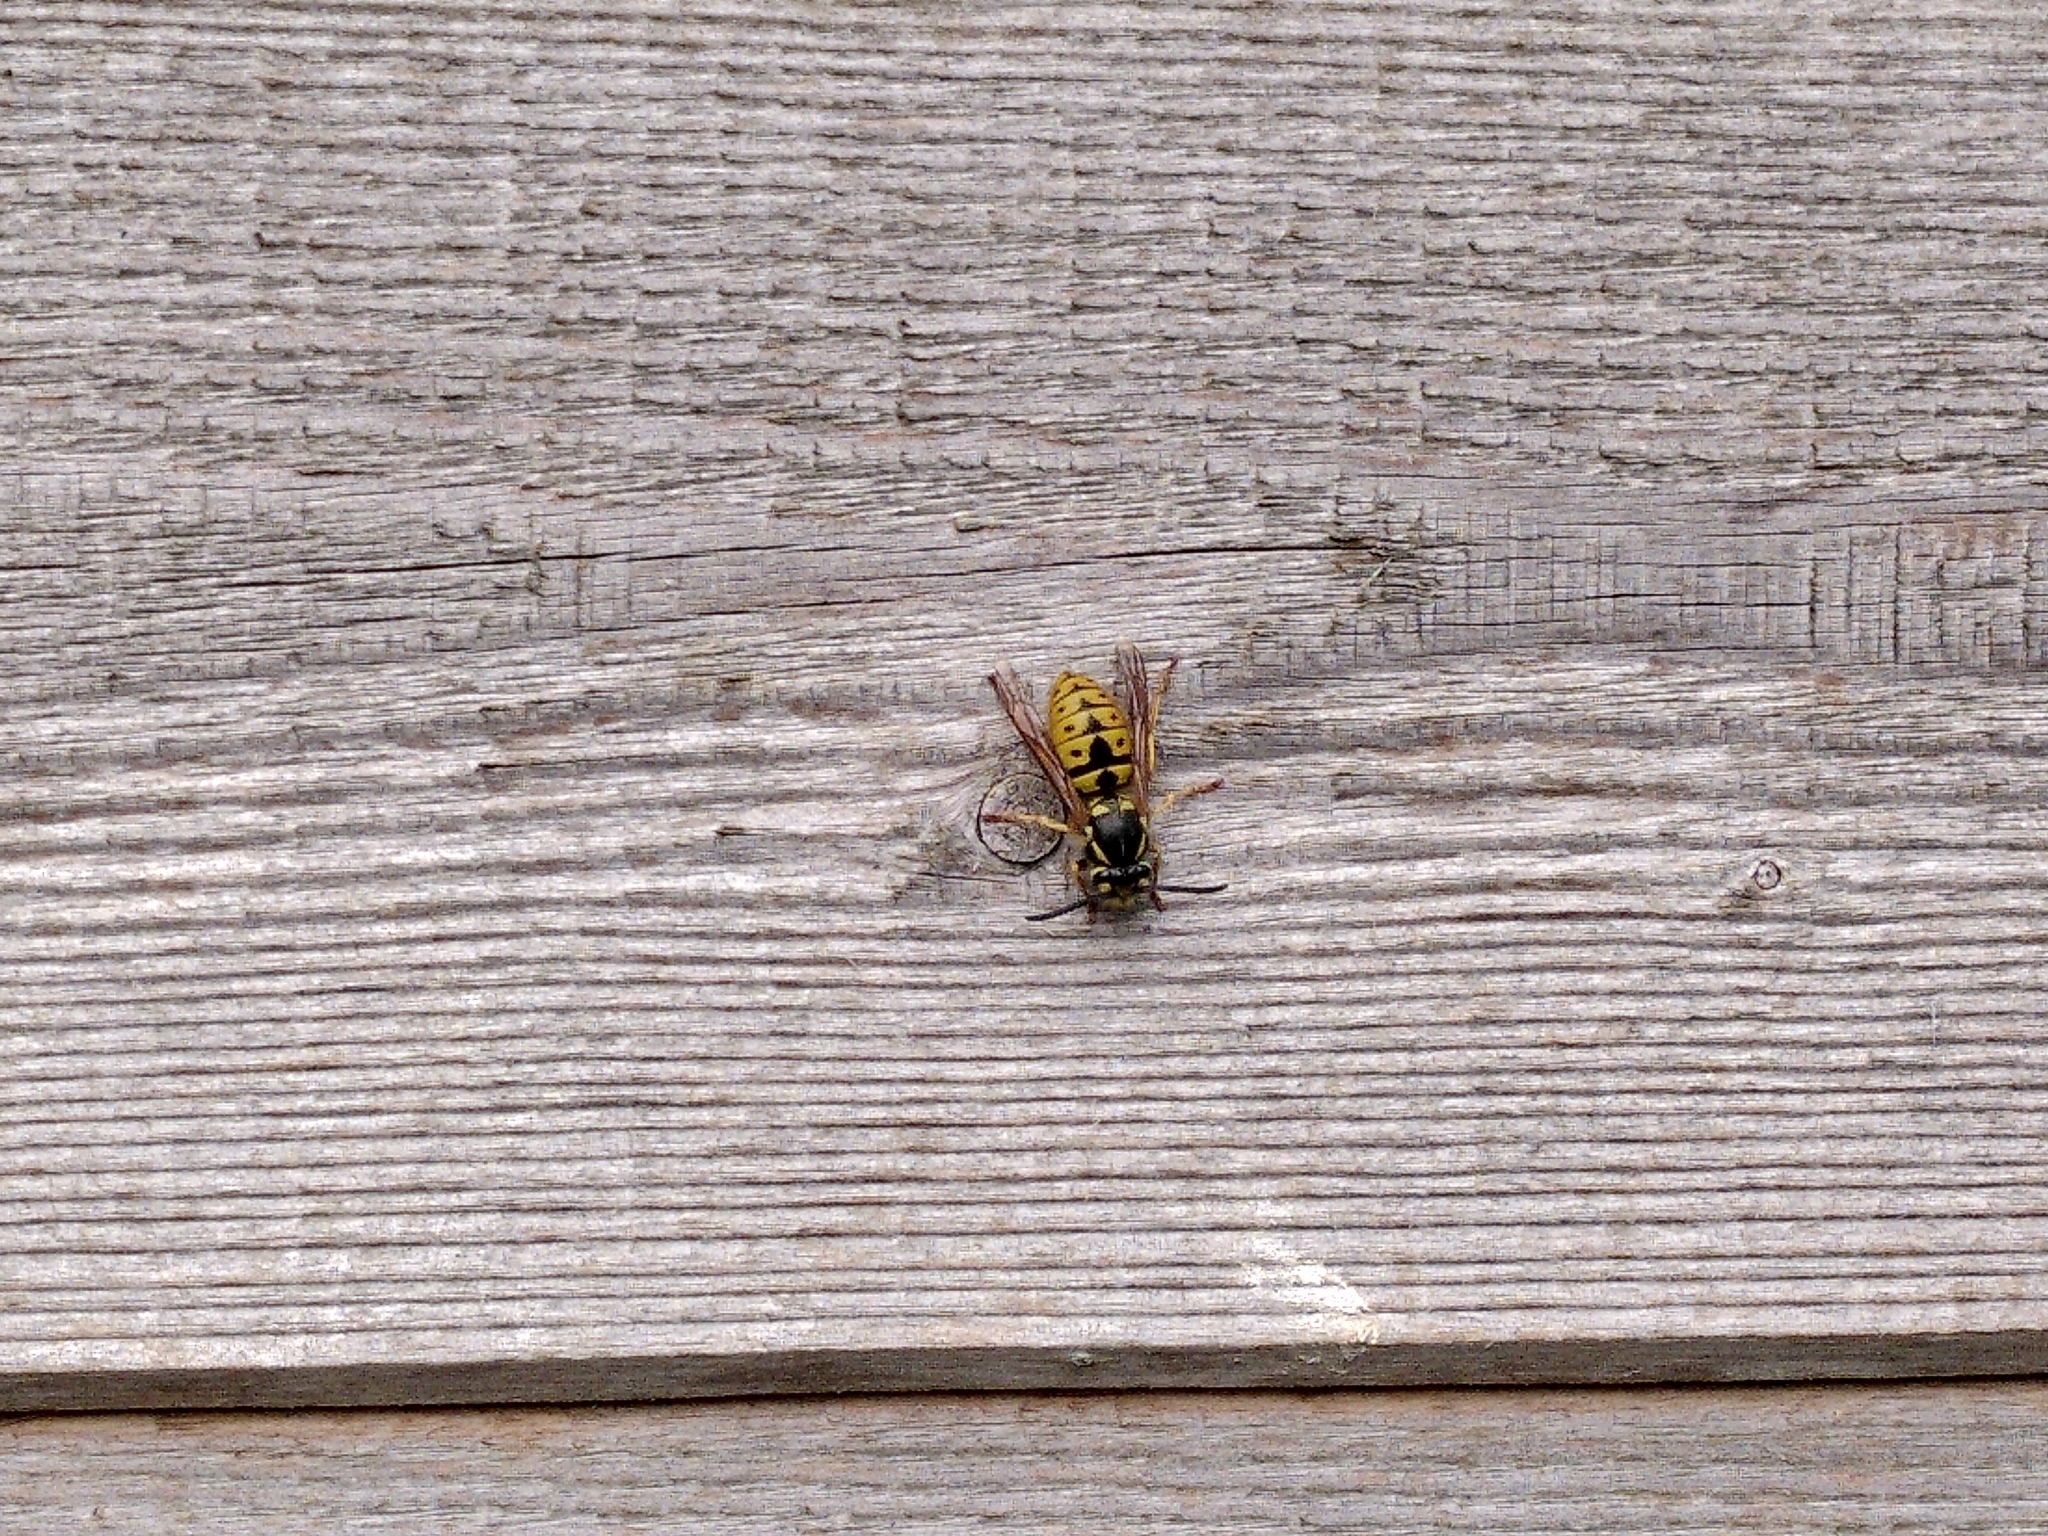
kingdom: Animalia
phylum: Arthropoda
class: Insecta
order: Hymenoptera
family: Vespidae
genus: Vespula
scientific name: Vespula germanica
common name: German wasp
